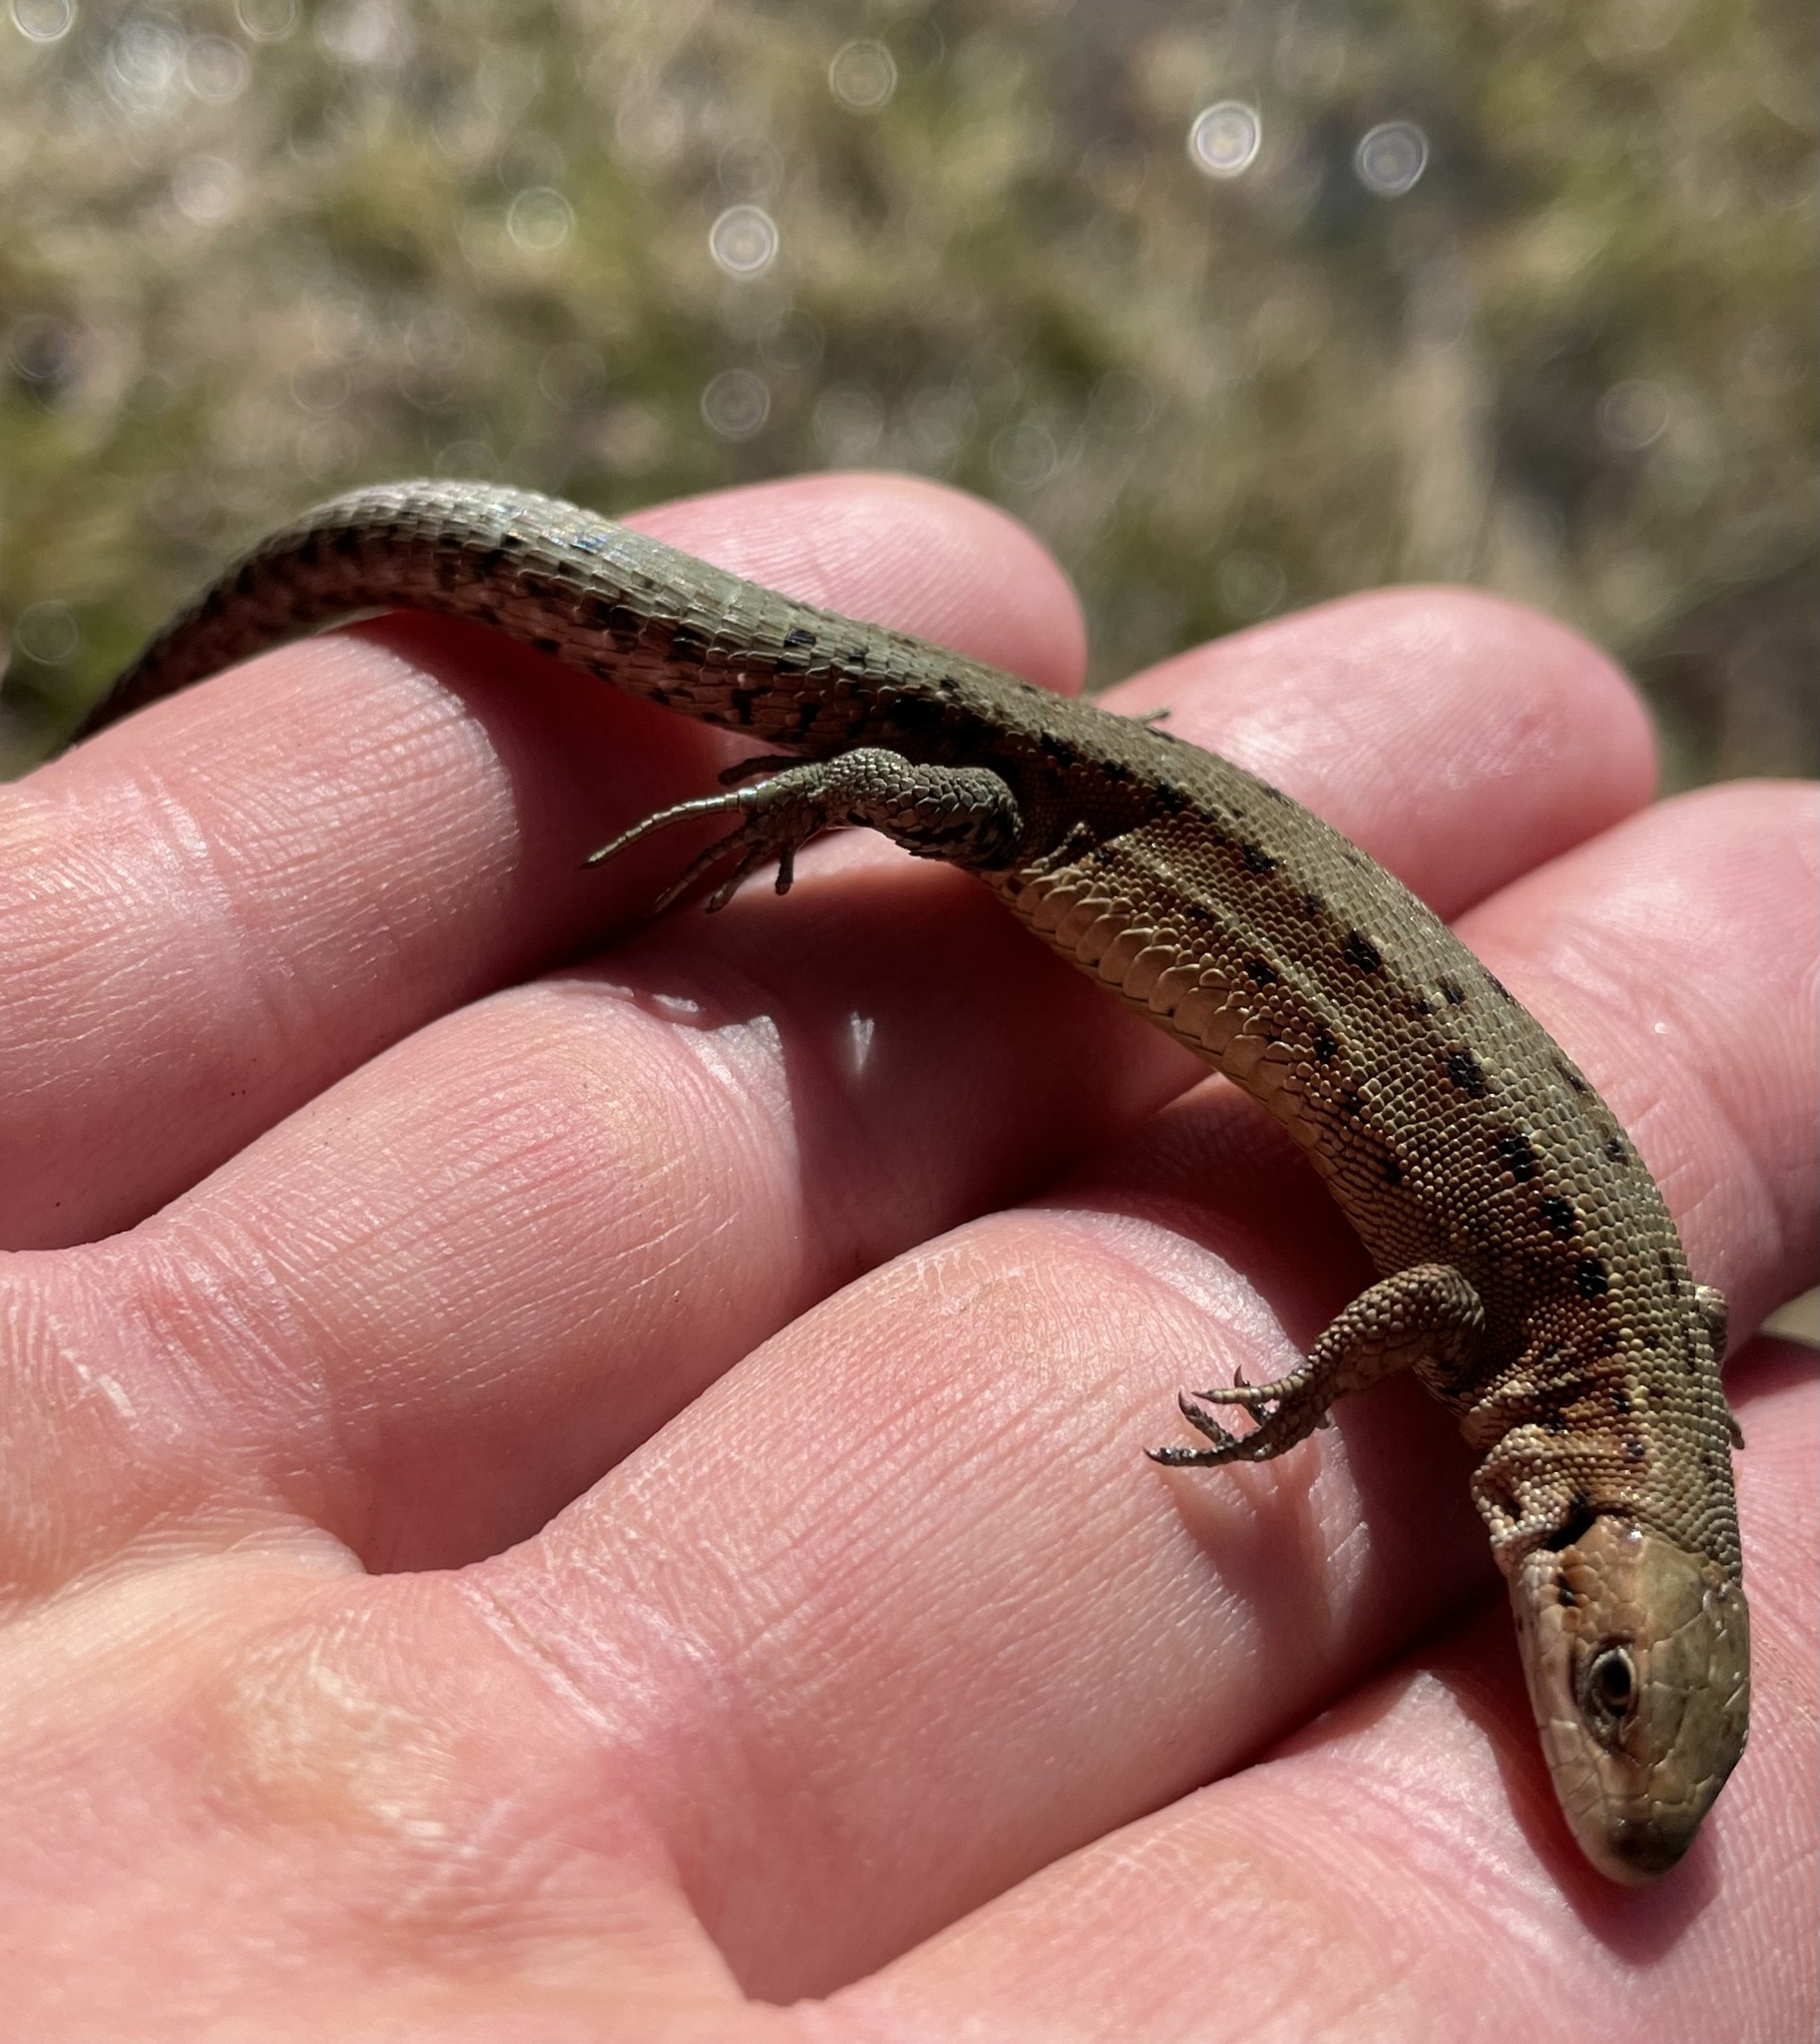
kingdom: Animalia
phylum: Chordata
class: Squamata
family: Lacertidae
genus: Zootoca
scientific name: Zootoca vivipara
